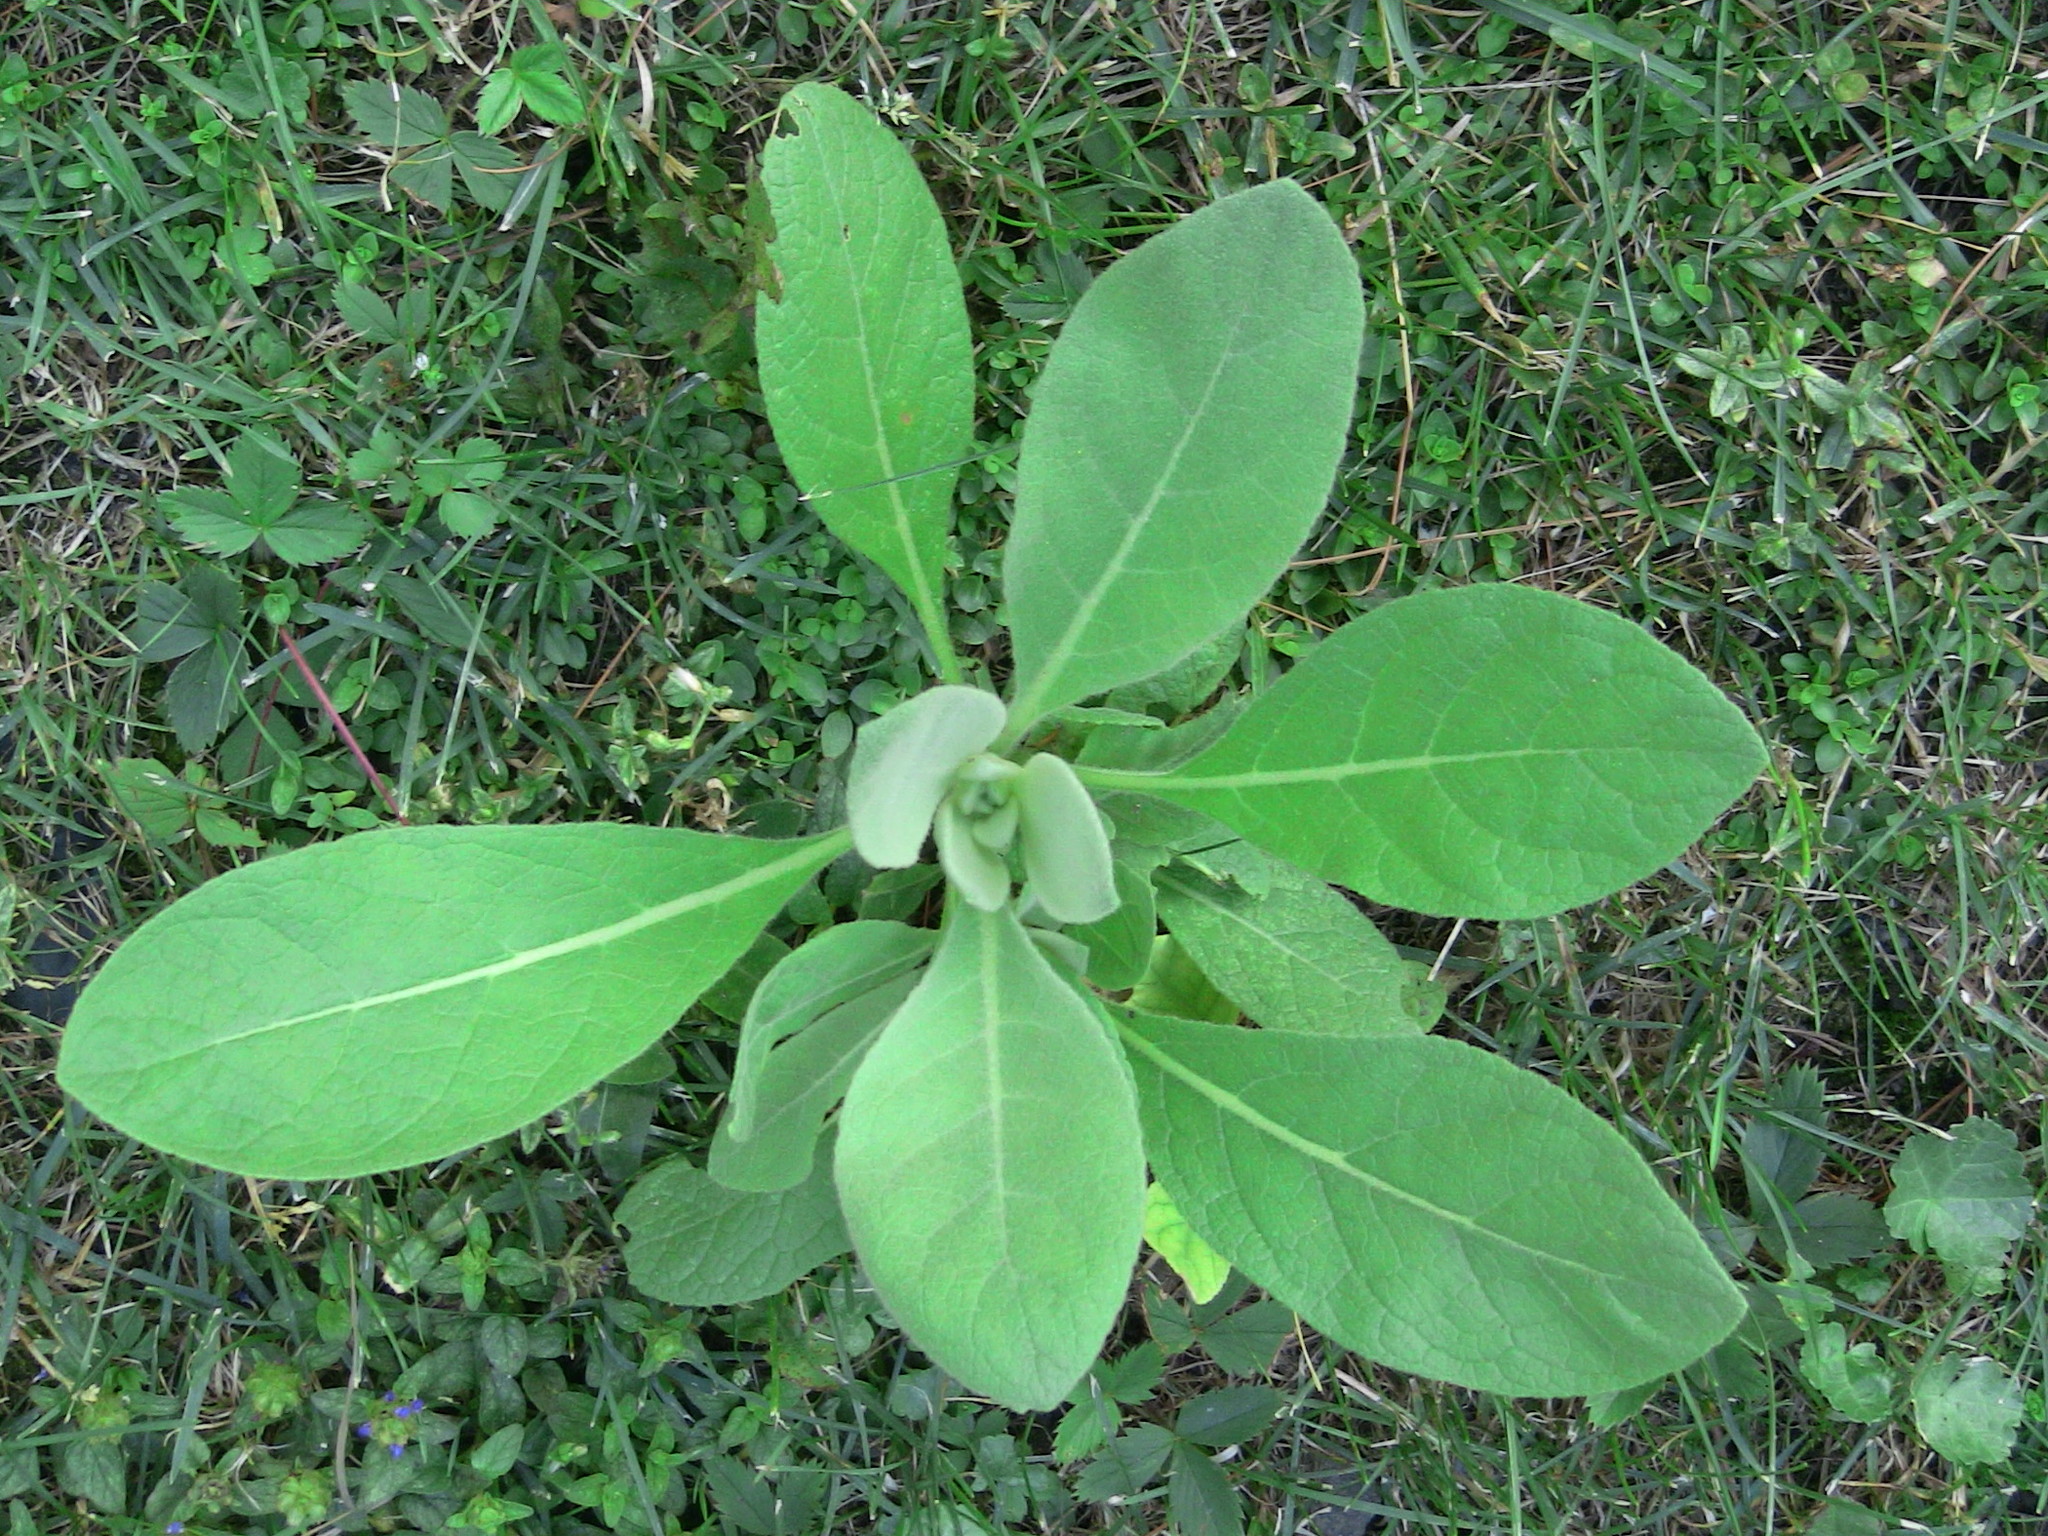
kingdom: Plantae
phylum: Tracheophyta
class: Magnoliopsida
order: Lamiales
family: Scrophulariaceae
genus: Verbascum
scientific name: Verbascum thapsus
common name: Common mullein
